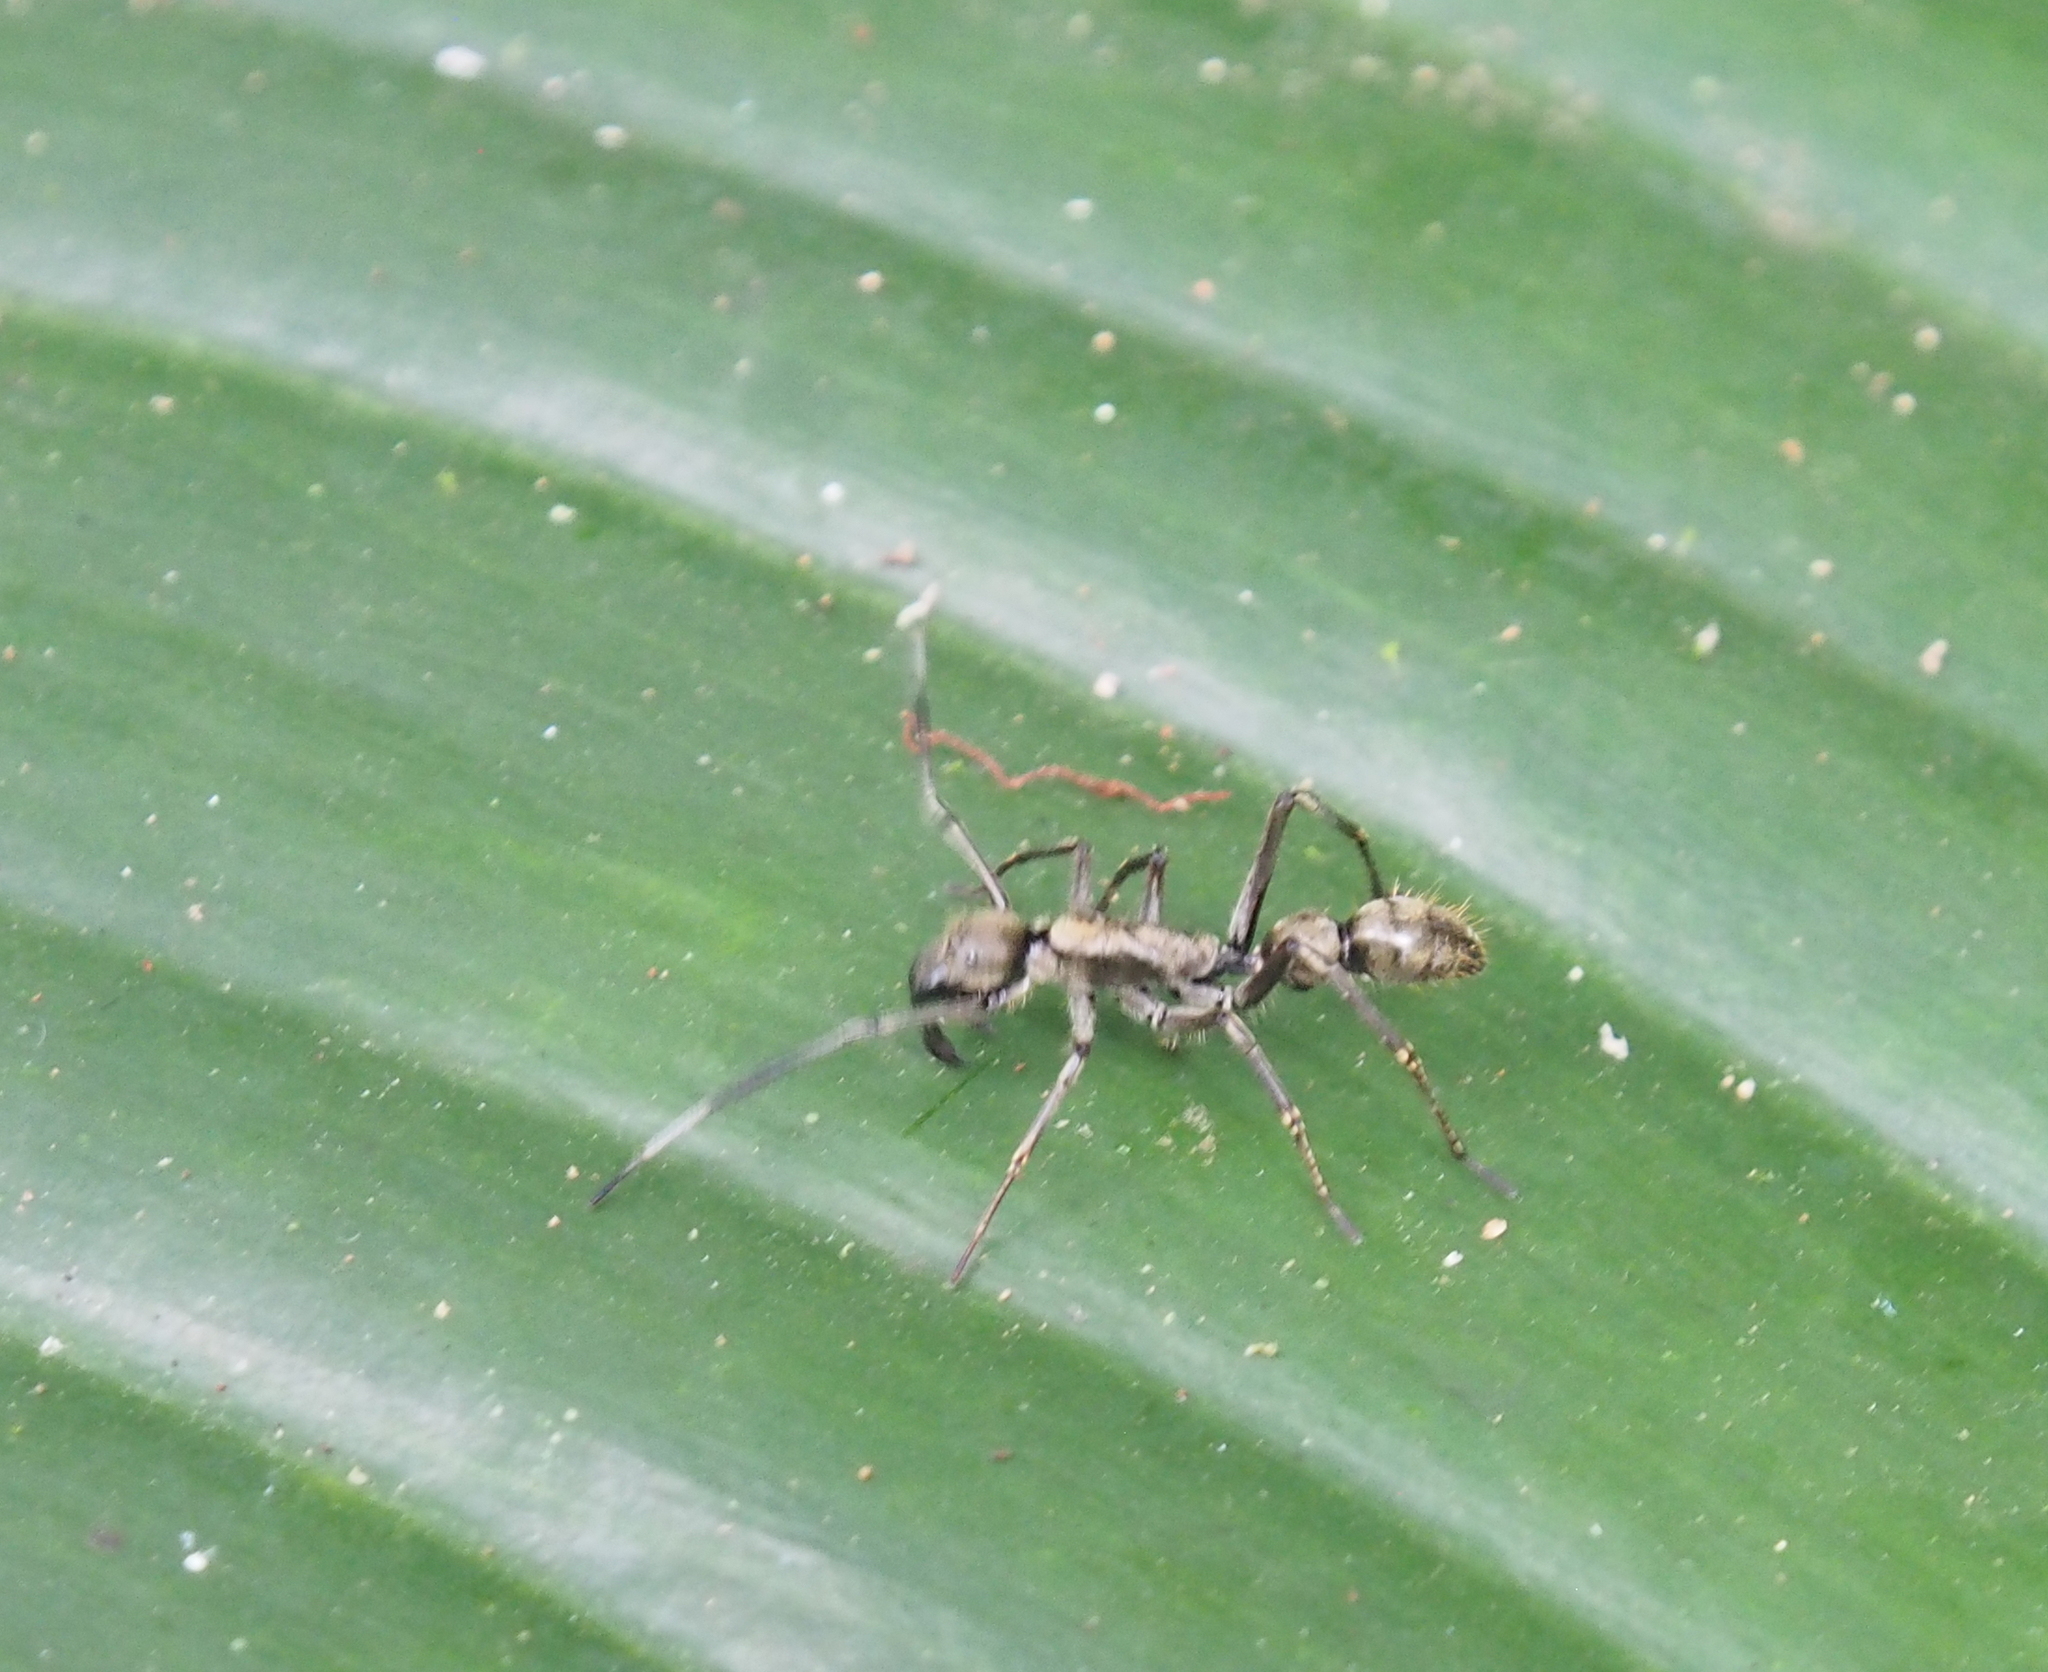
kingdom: Animalia
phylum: Arthropoda
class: Arachnida
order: Araneae
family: Corinnidae
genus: Sphecotypus
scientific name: Sphecotypus niger
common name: Corinnid sac spiders
